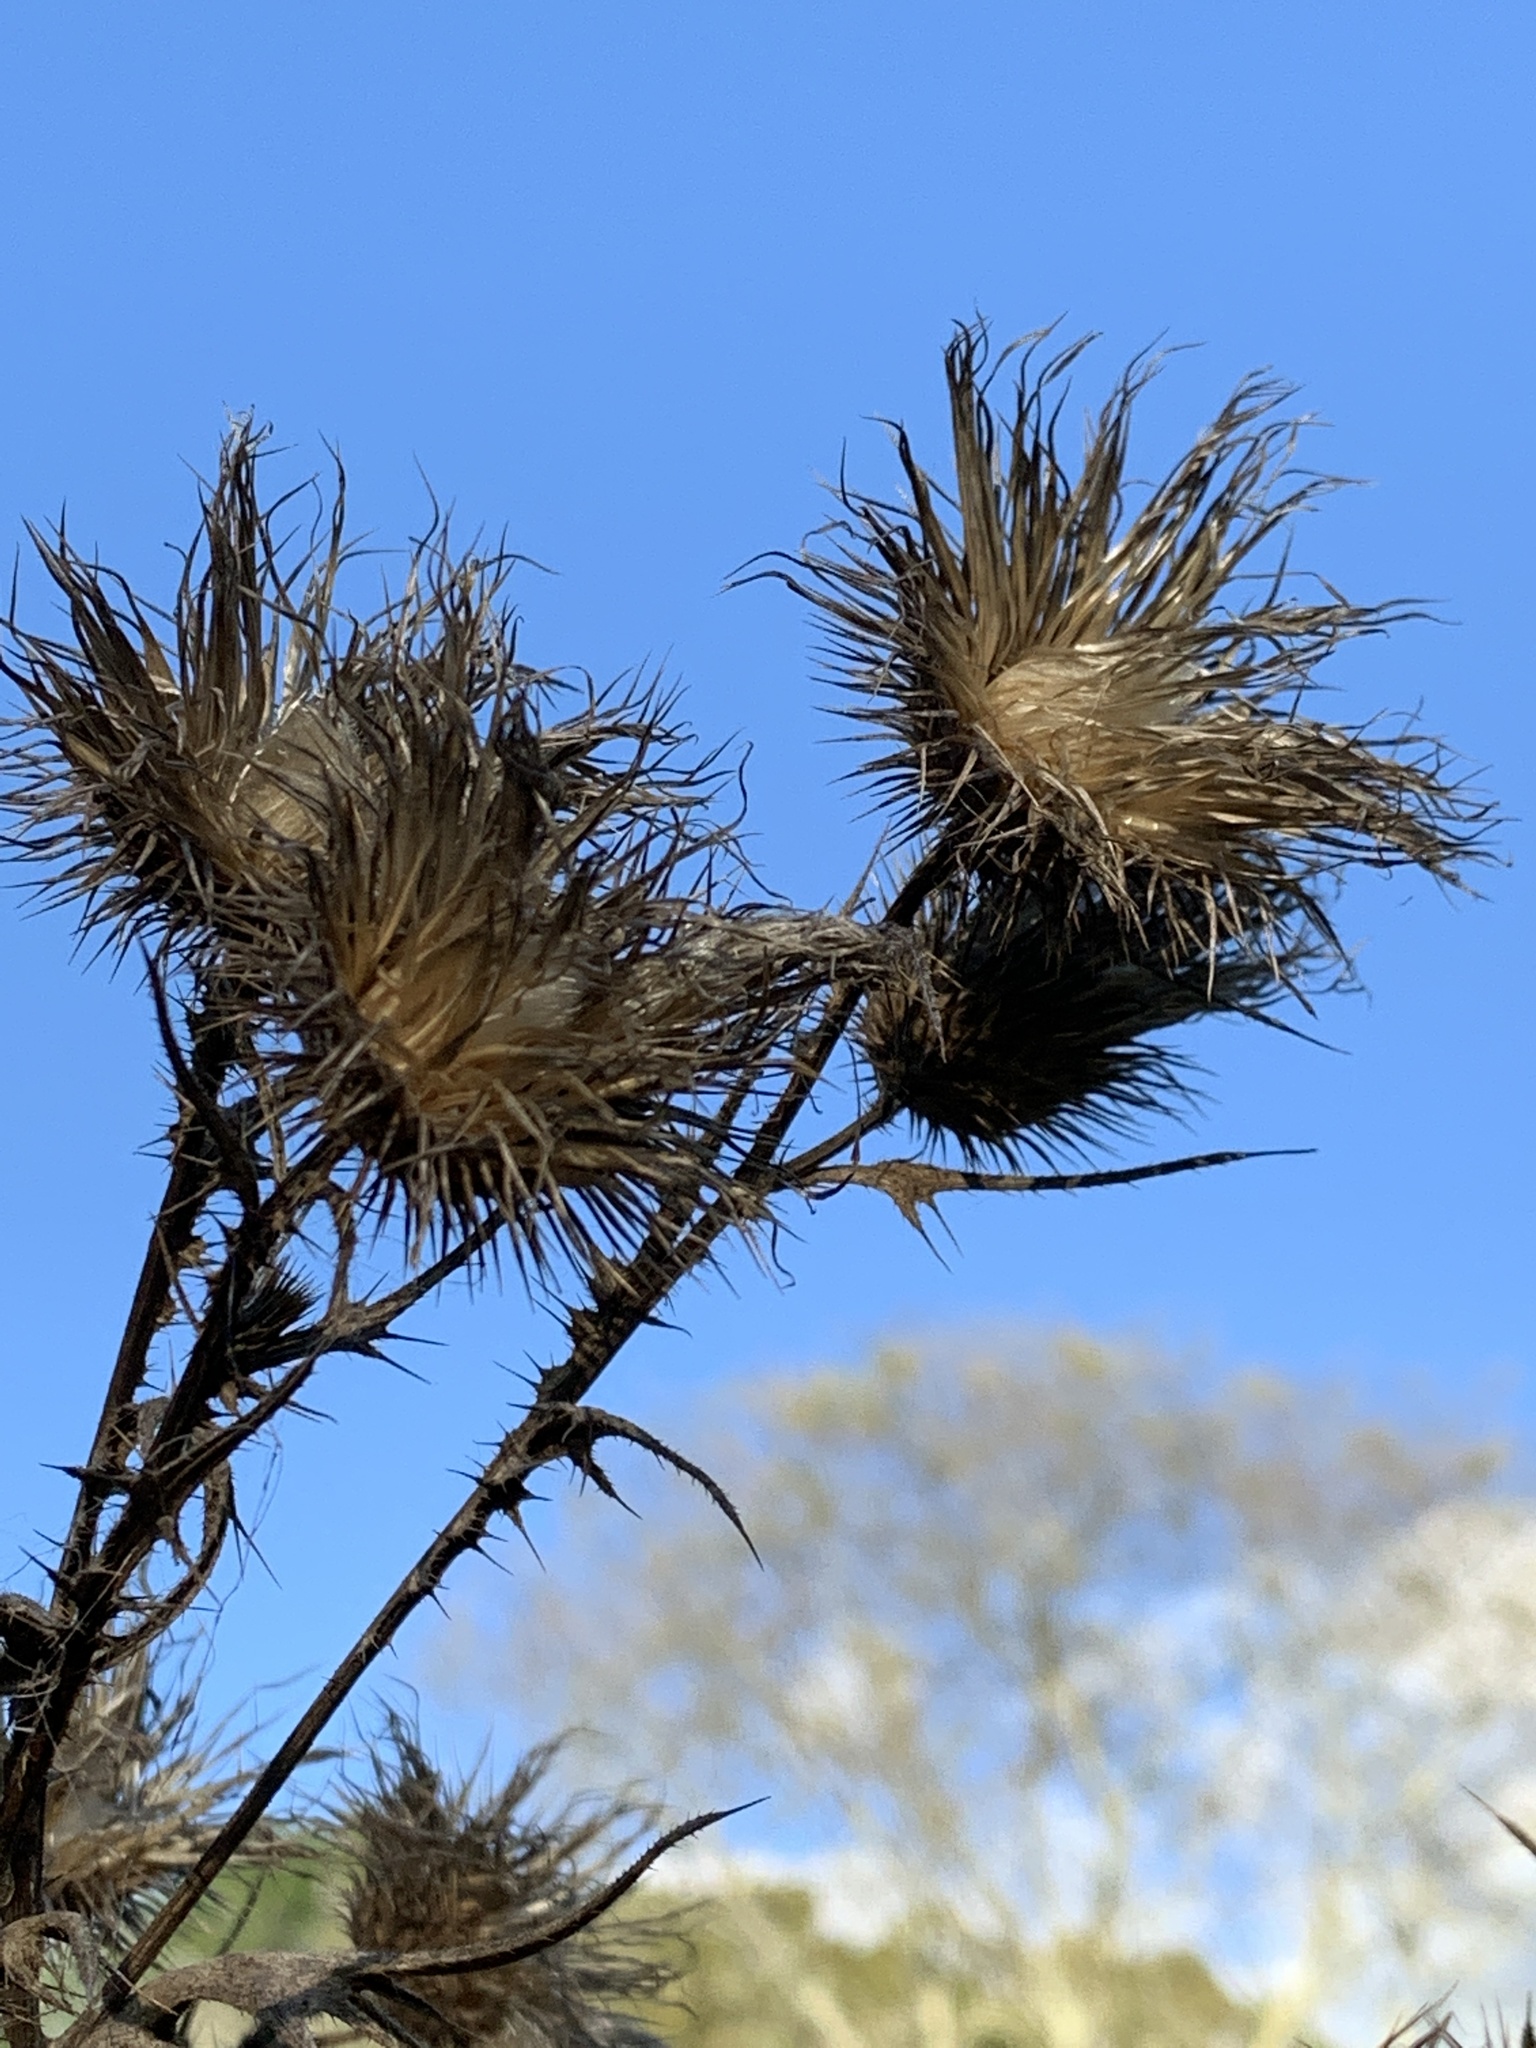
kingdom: Plantae
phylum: Tracheophyta
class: Magnoliopsida
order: Asterales
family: Asteraceae
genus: Cirsium
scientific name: Cirsium vulgare
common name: Bull thistle
